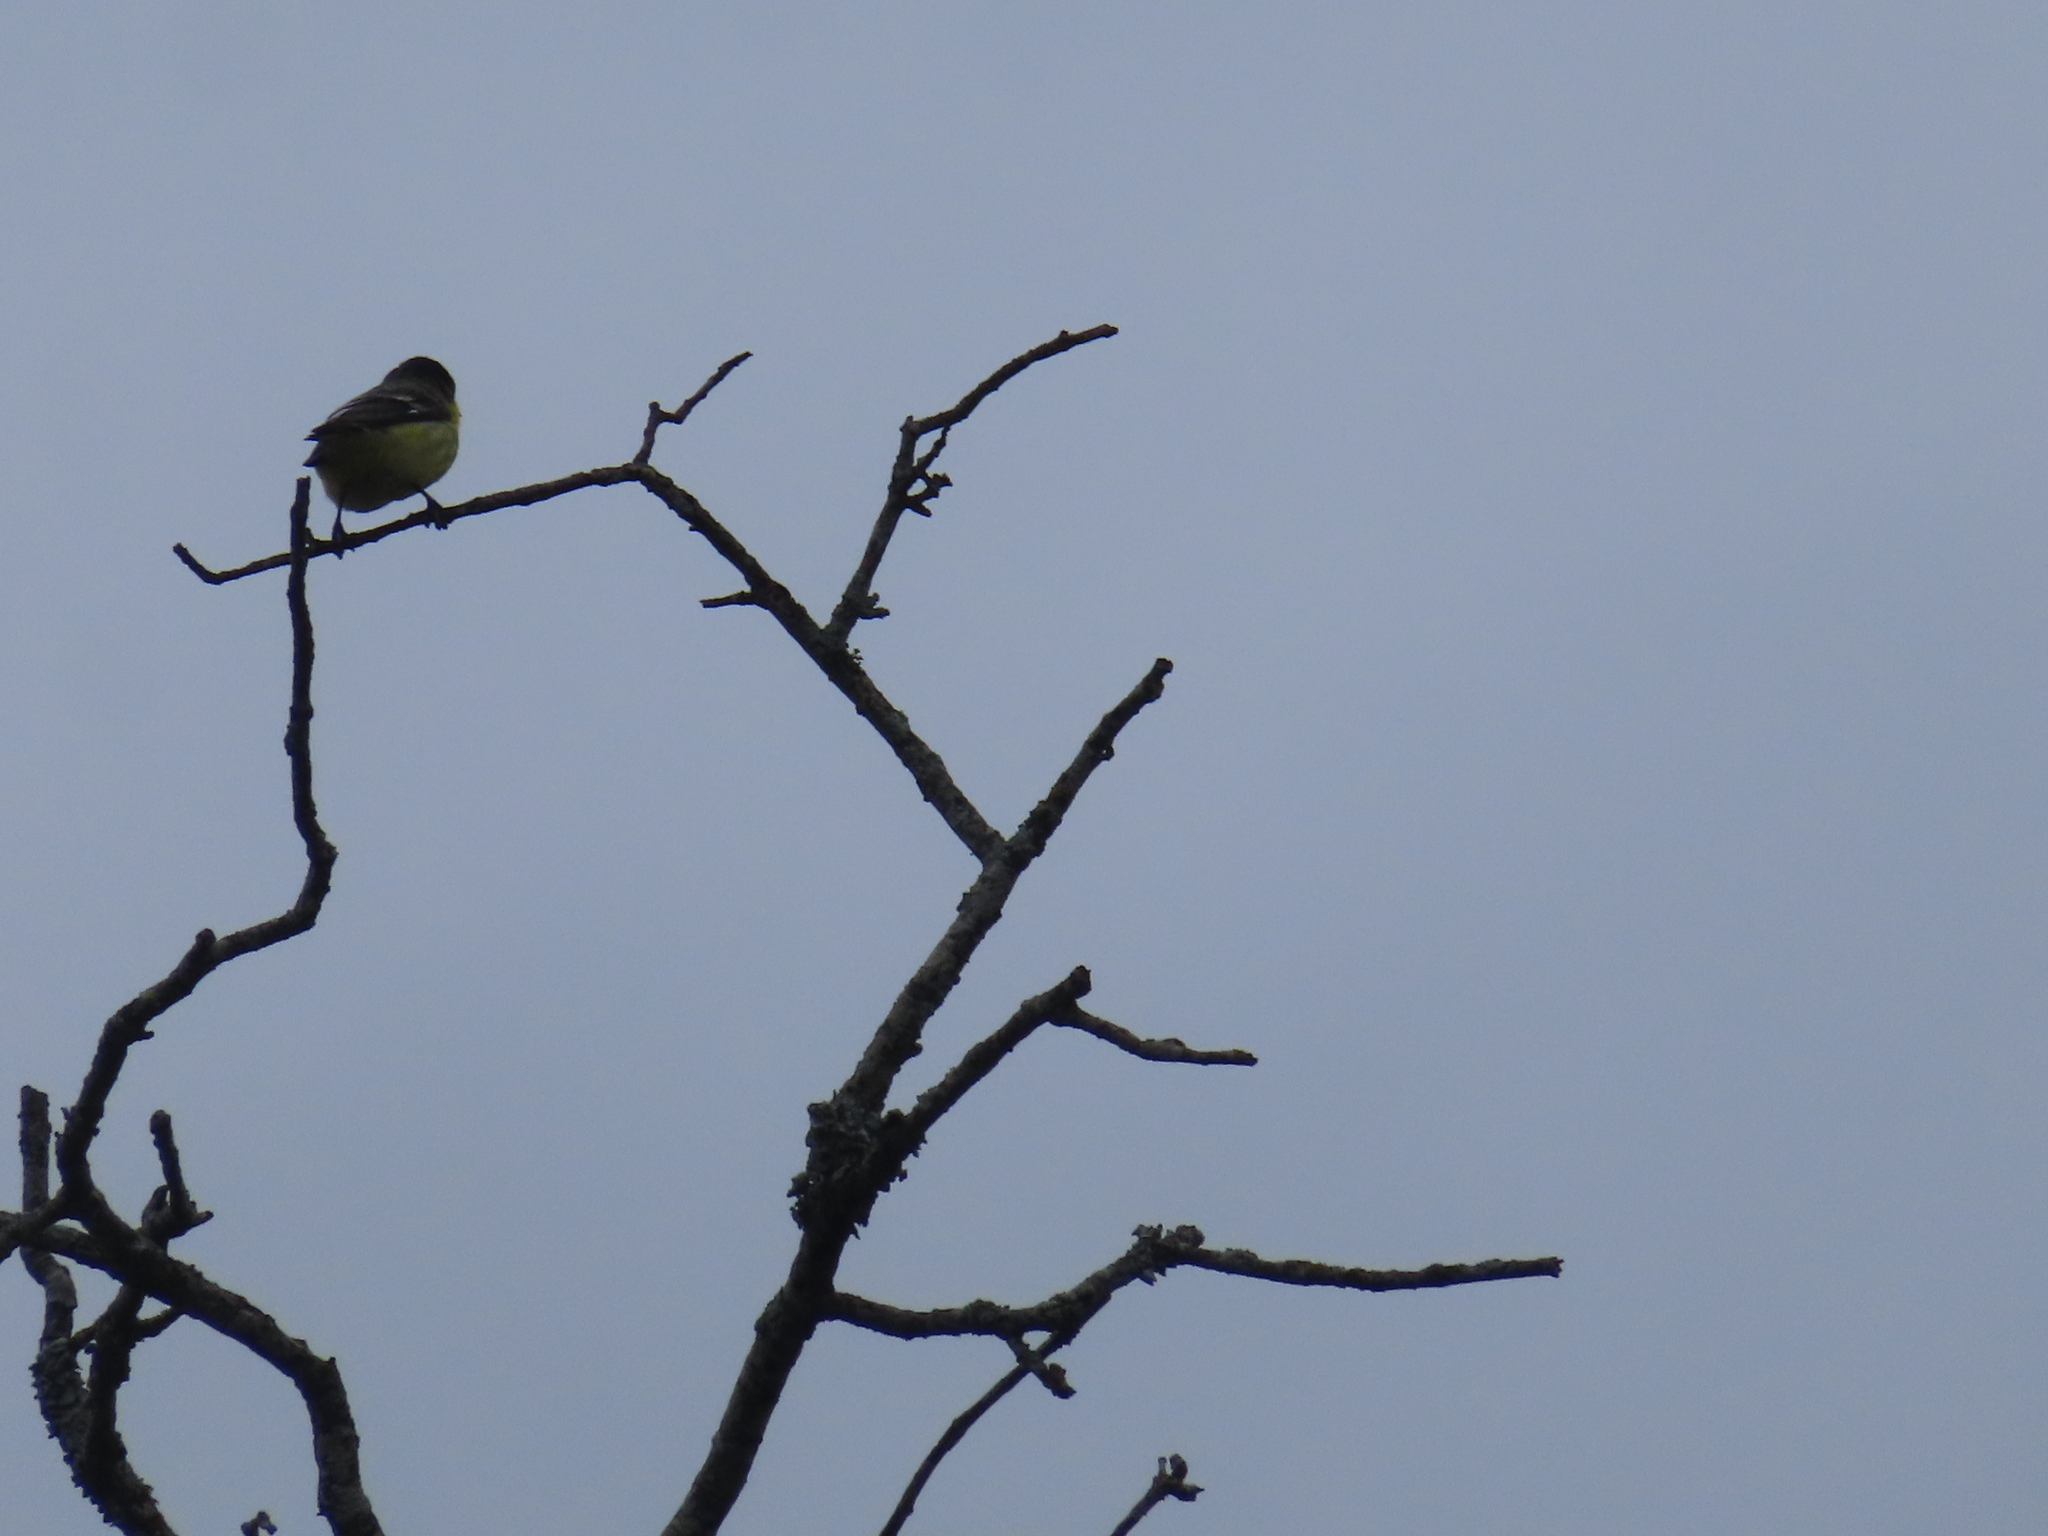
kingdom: Animalia
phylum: Chordata
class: Aves
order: Passeriformes
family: Fringillidae
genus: Spinus
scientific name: Spinus psaltria
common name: Lesser goldfinch
